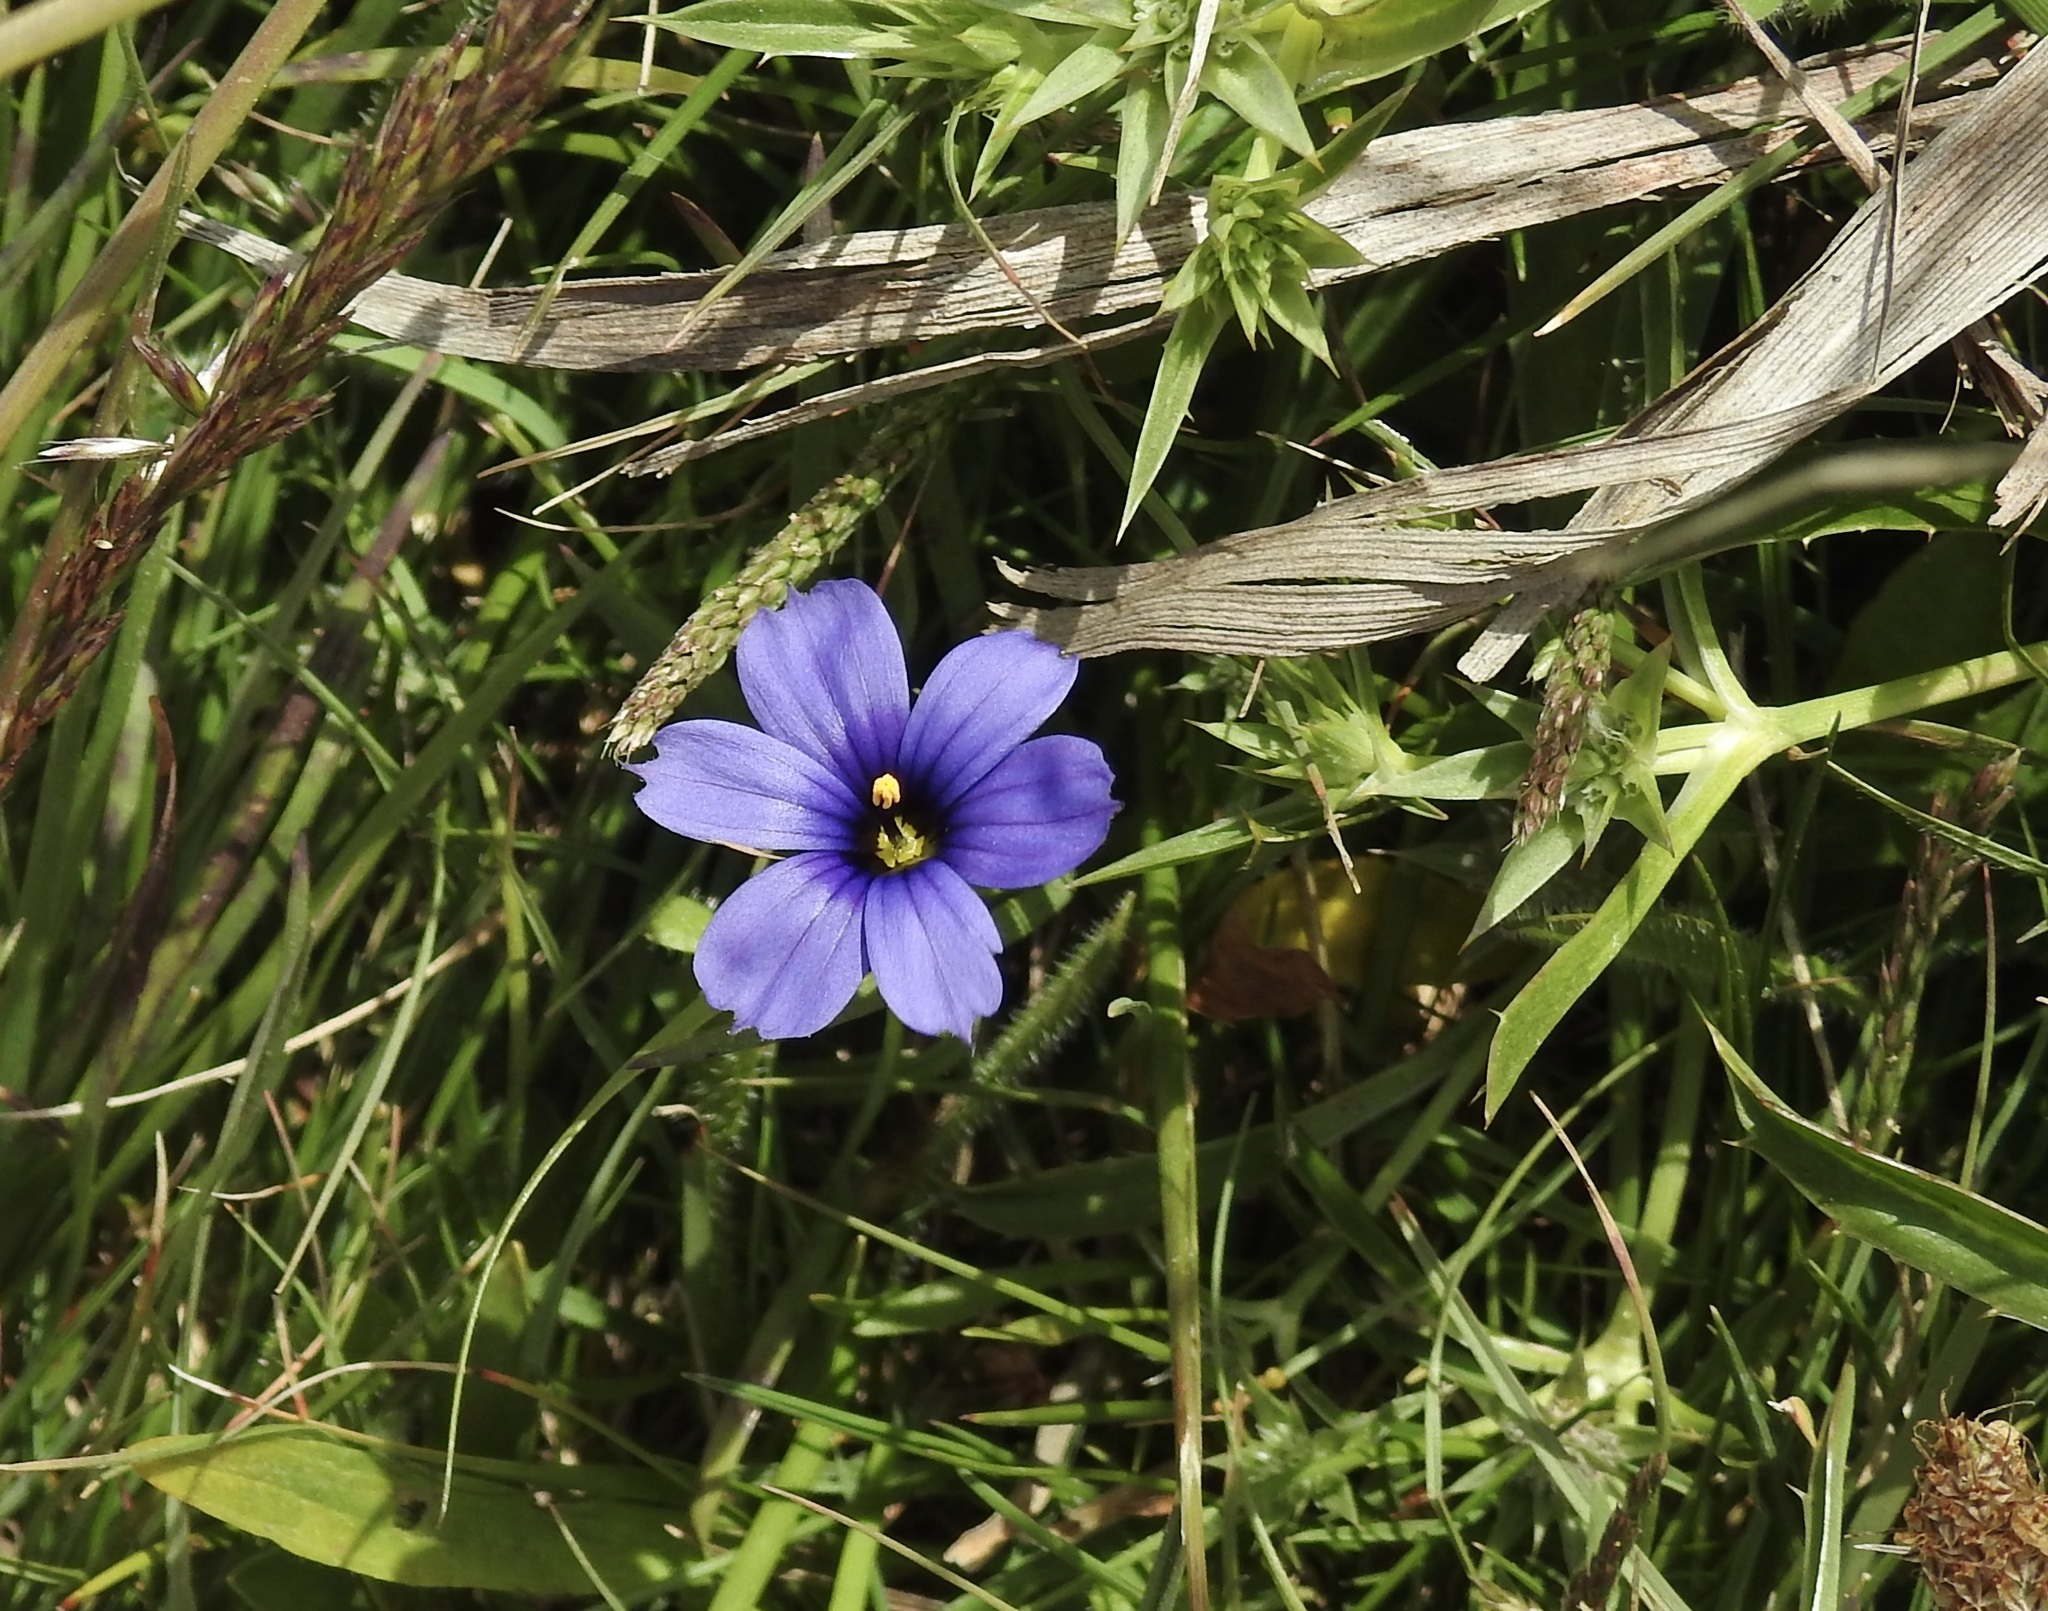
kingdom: Plantae
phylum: Tracheophyta
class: Liliopsida
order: Asparagales
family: Iridaceae
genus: Sisyrinchium
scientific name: Sisyrinchium bellum
